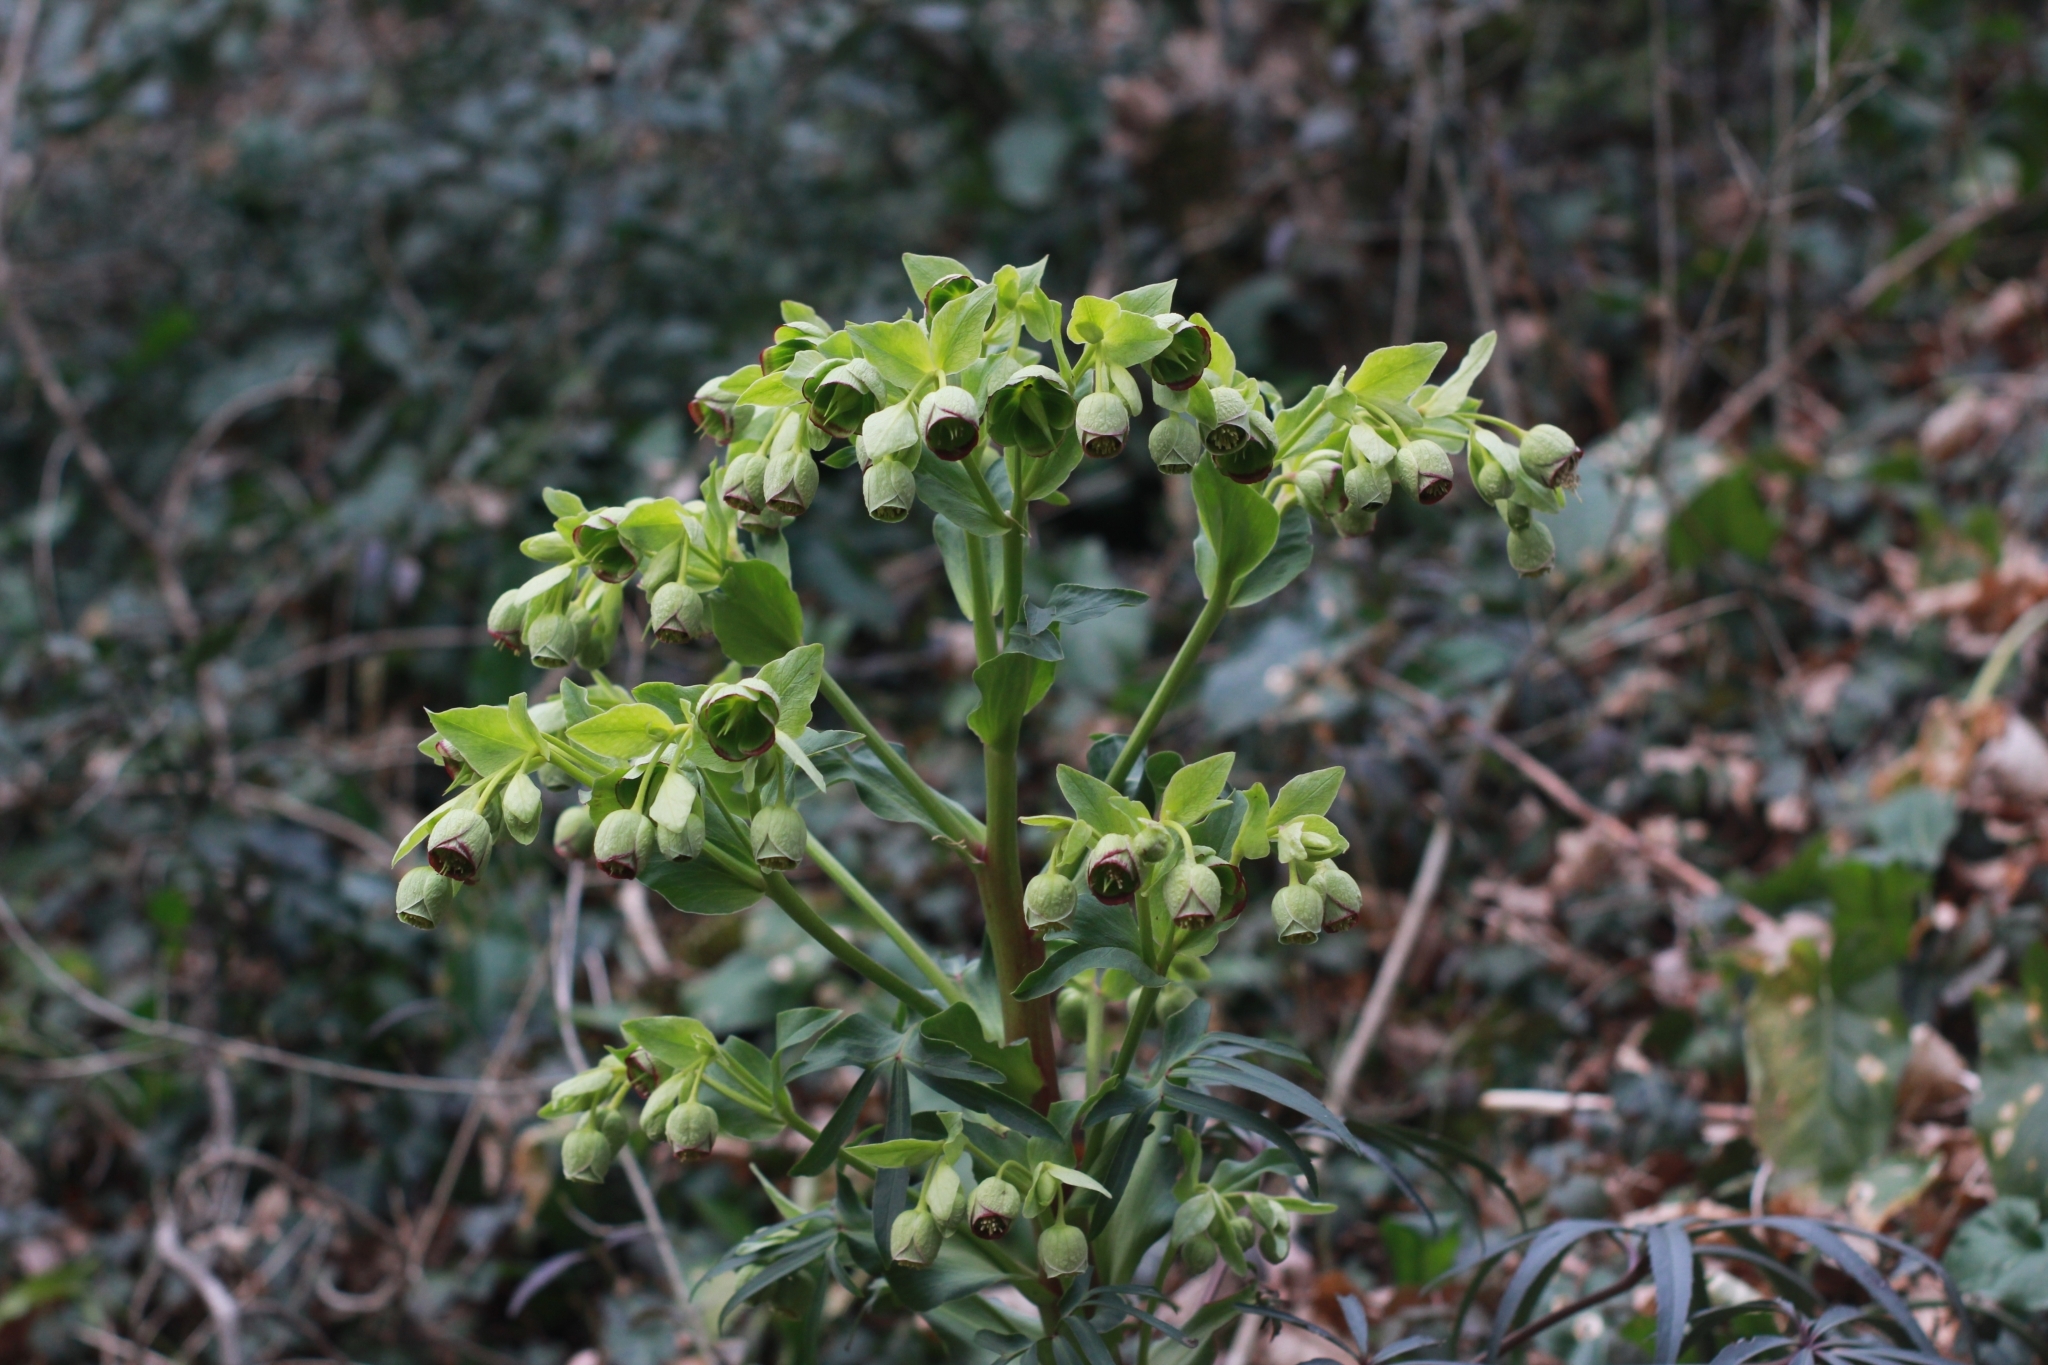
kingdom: Plantae
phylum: Tracheophyta
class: Magnoliopsida
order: Ranunculales
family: Ranunculaceae
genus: Helleborus
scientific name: Helleborus foetidus
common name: Stinking hellebore
